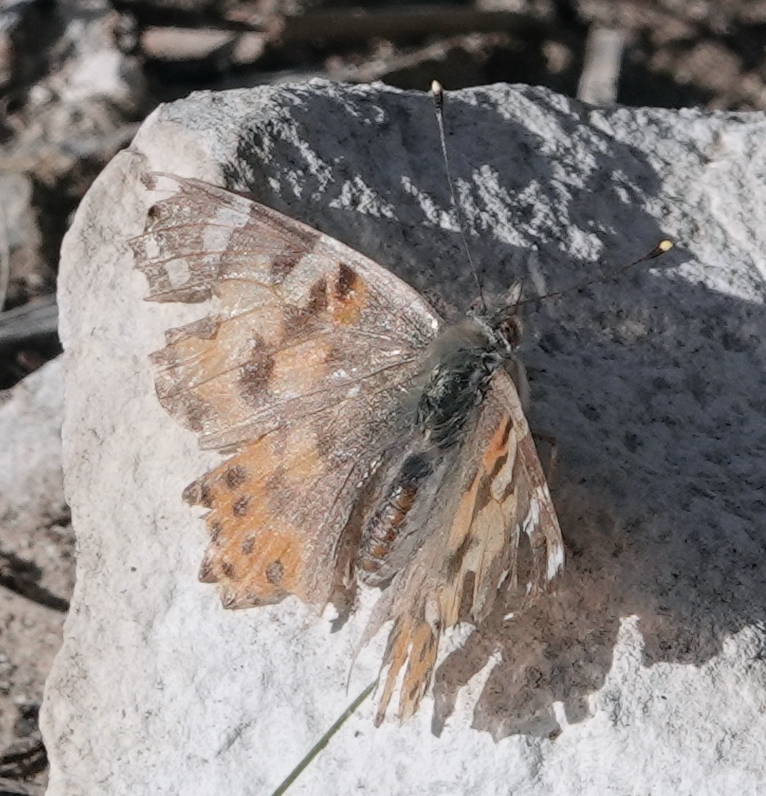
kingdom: Animalia
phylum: Arthropoda
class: Insecta
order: Lepidoptera
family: Nymphalidae
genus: Vanessa
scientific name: Vanessa cardui
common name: Painted lady
